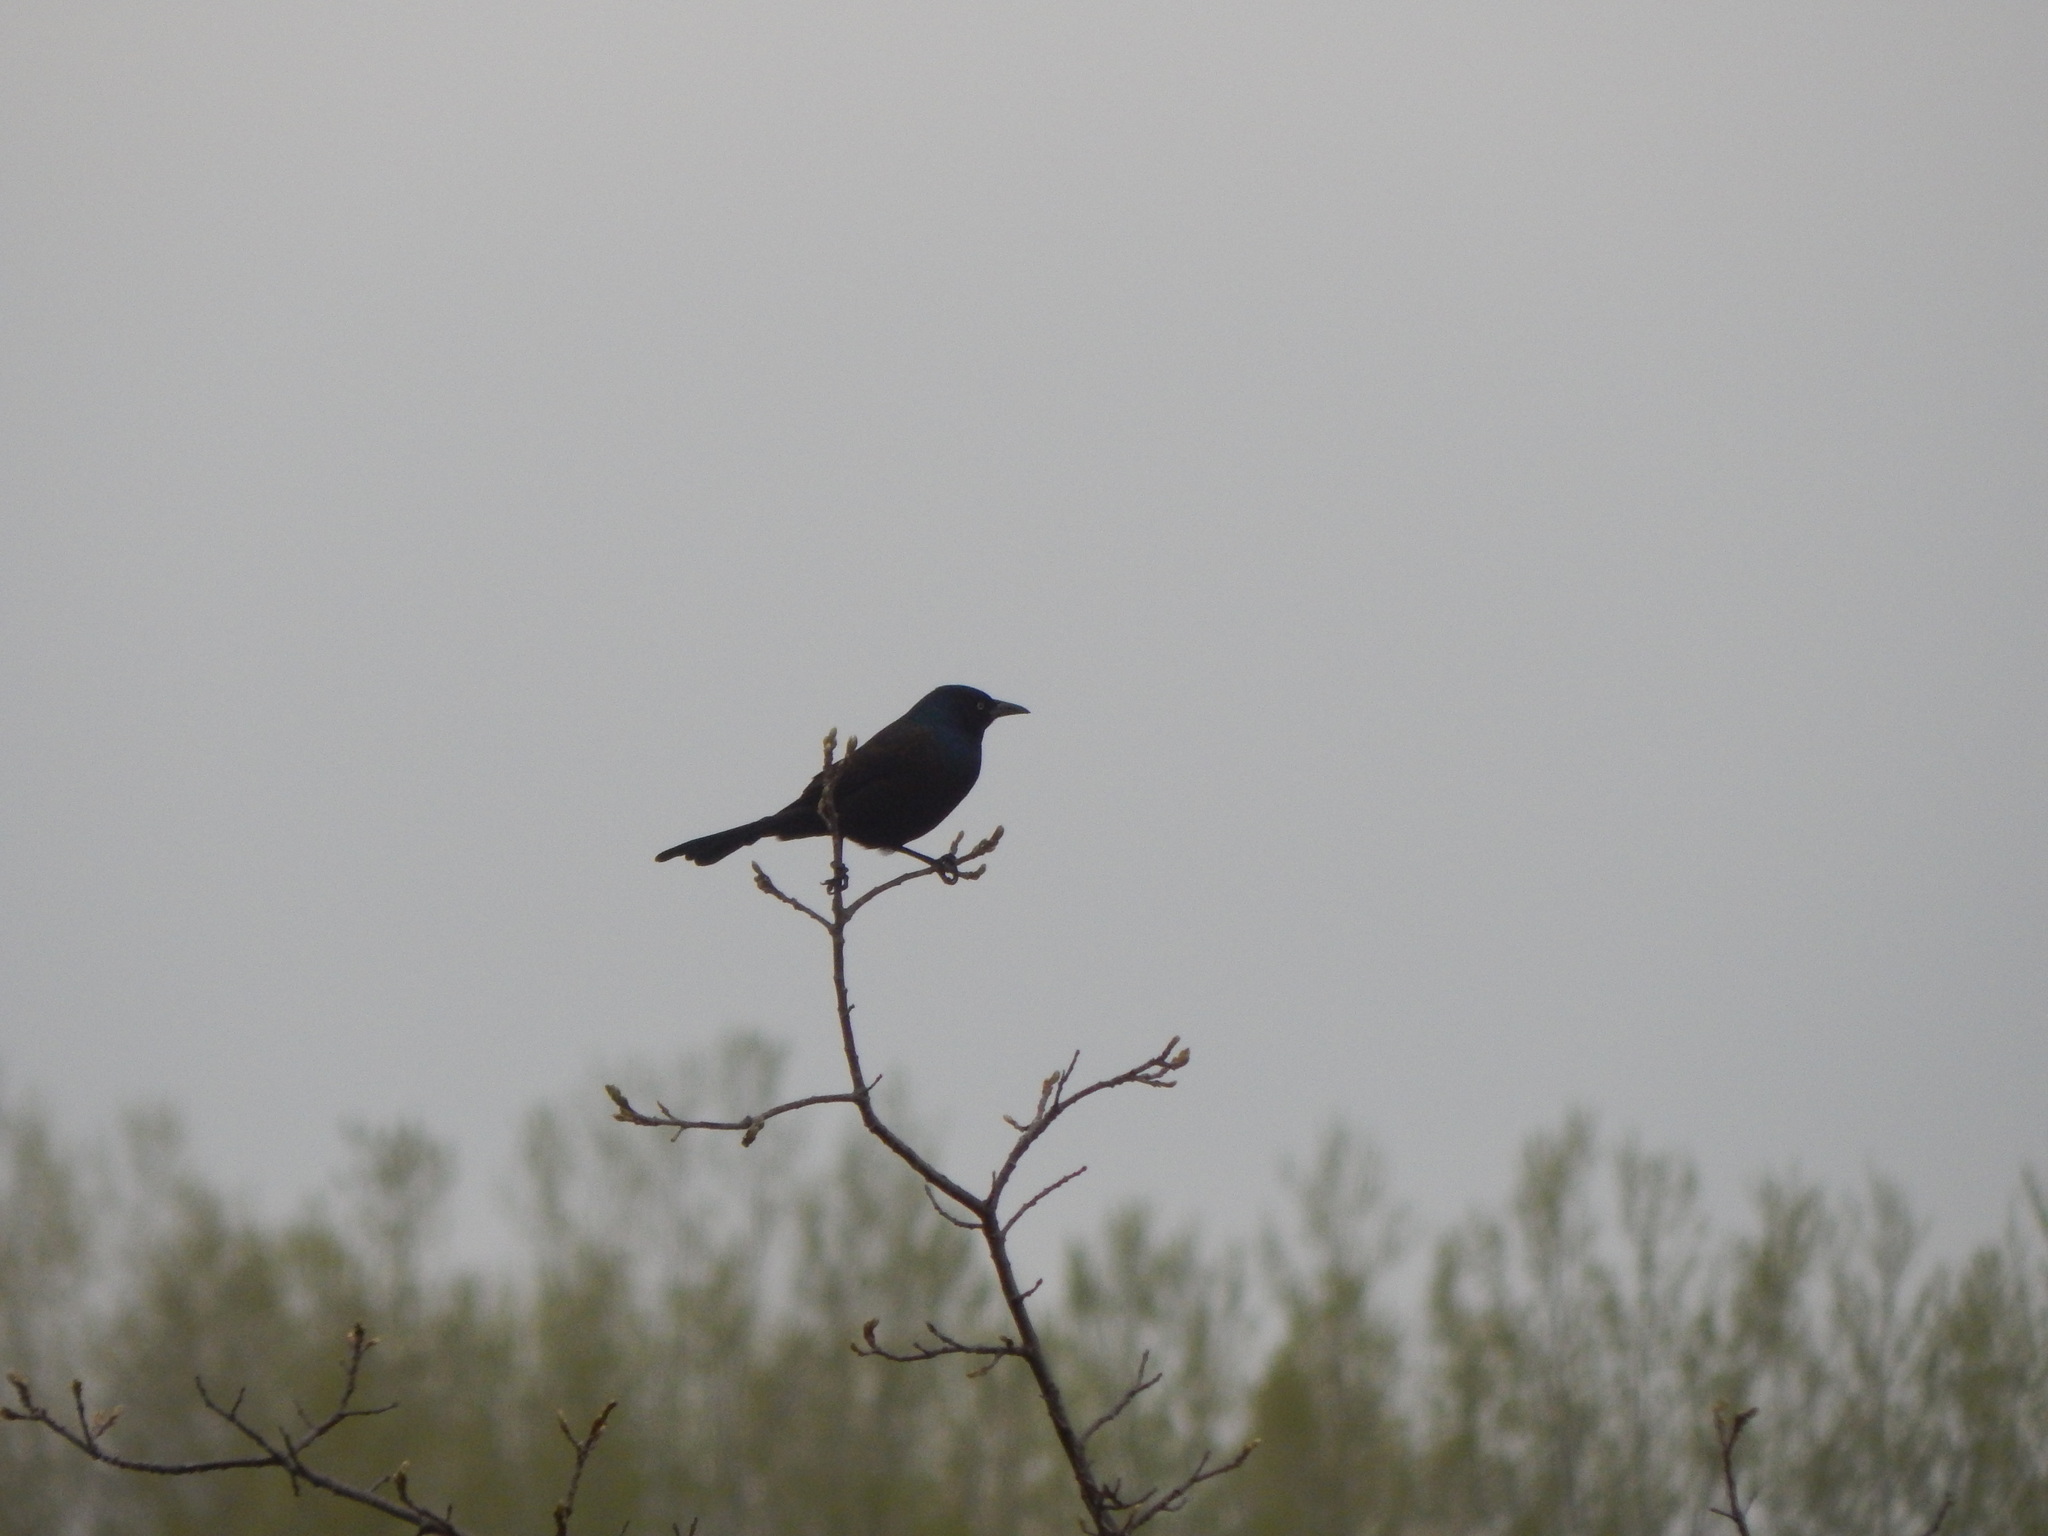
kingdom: Animalia
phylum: Chordata
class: Aves
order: Passeriformes
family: Icteridae
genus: Quiscalus
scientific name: Quiscalus quiscula
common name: Common grackle
